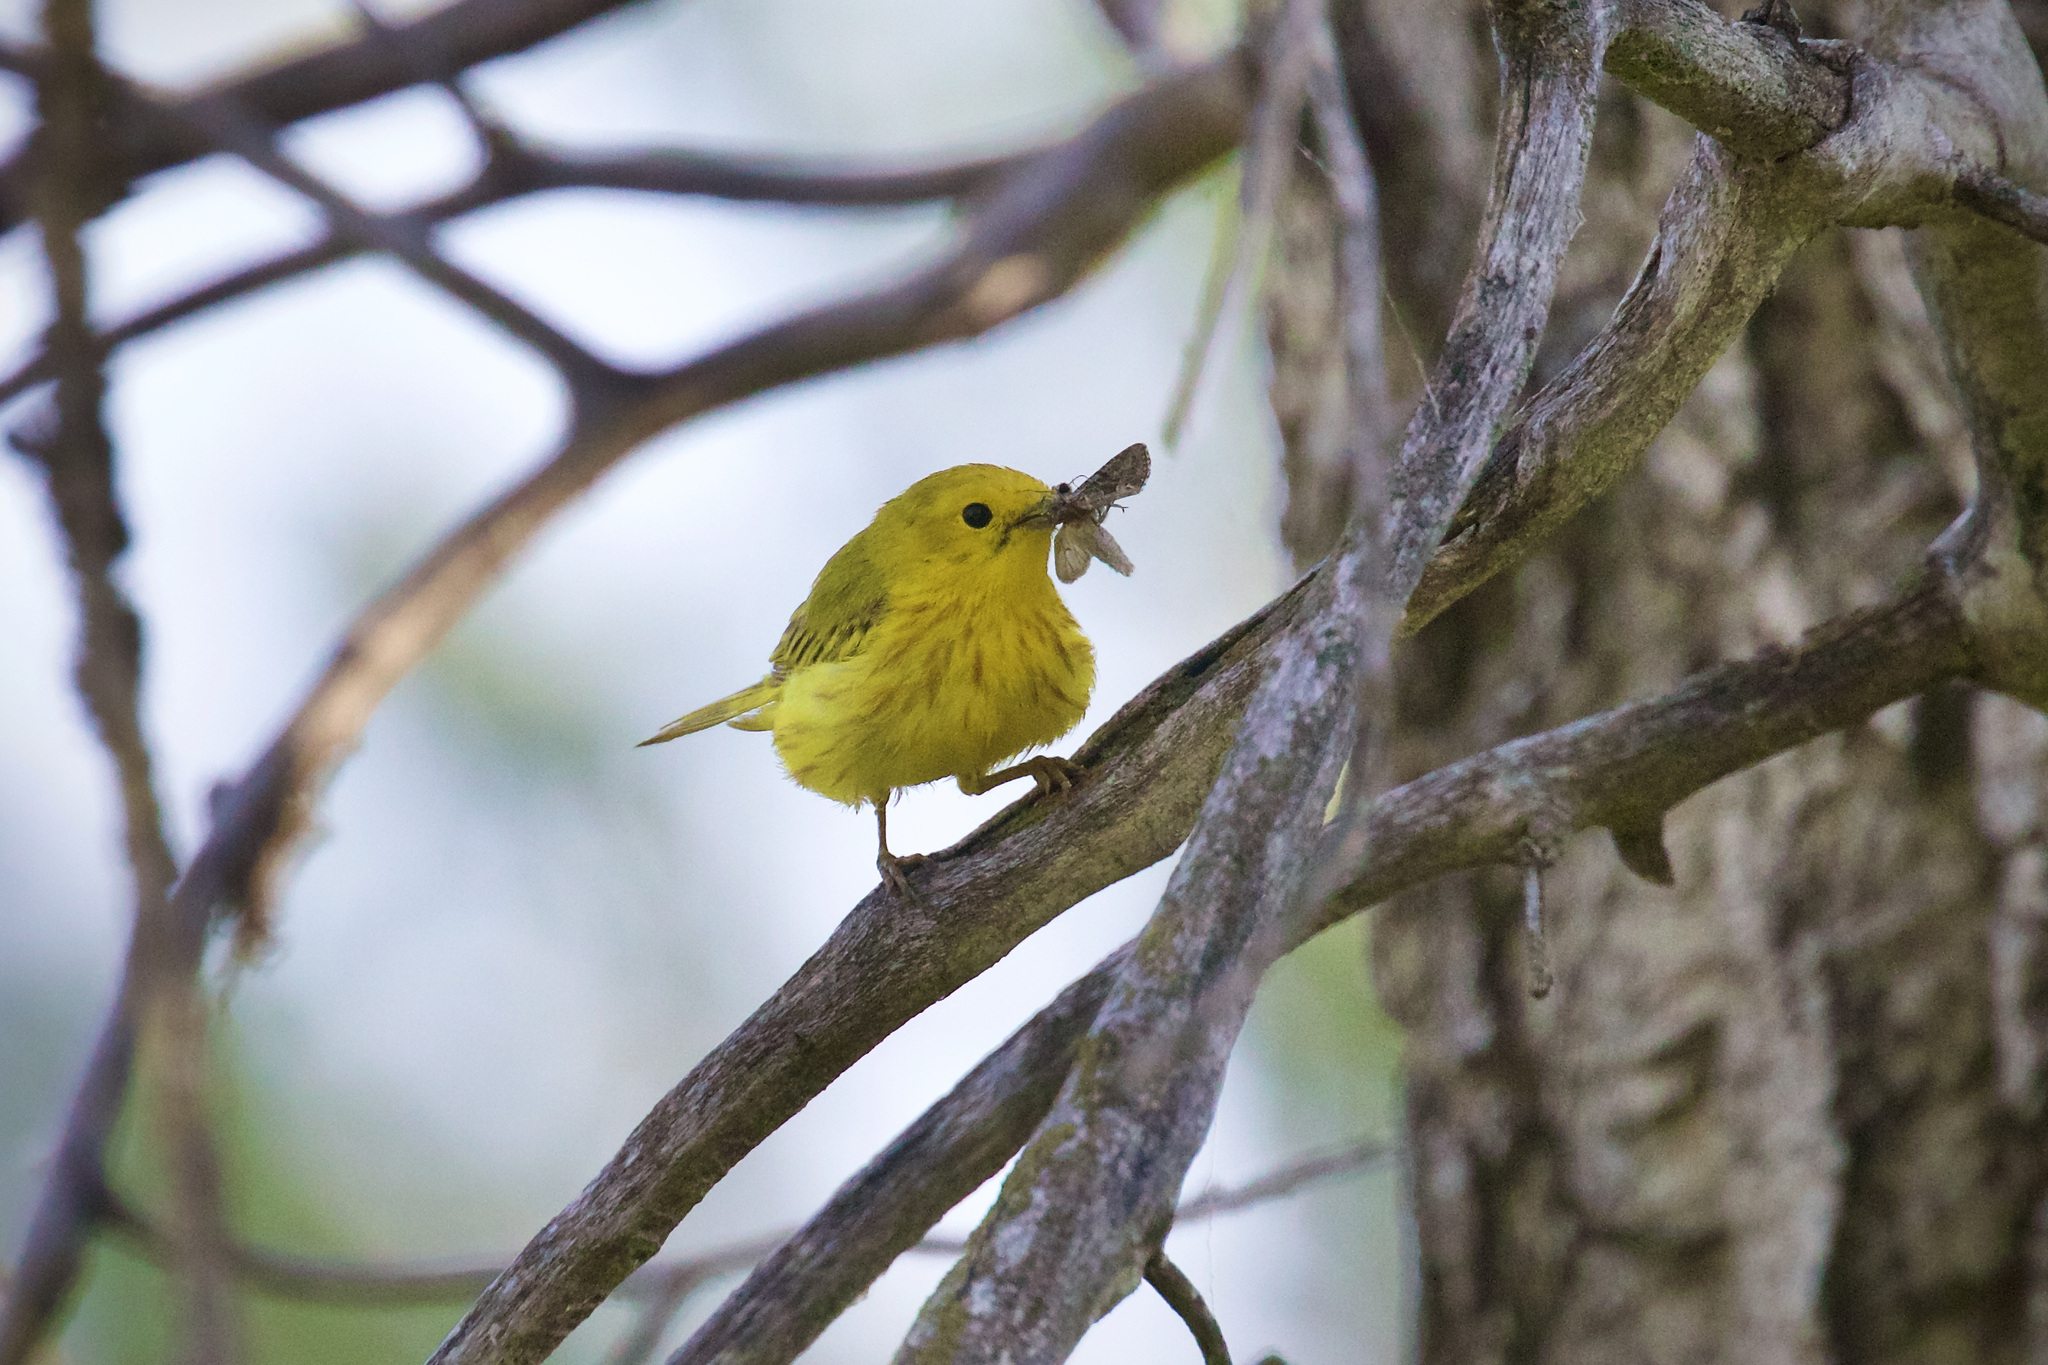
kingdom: Animalia
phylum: Chordata
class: Aves
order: Passeriformes
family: Parulidae
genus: Setophaga
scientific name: Setophaga petechia
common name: Yellow warbler
